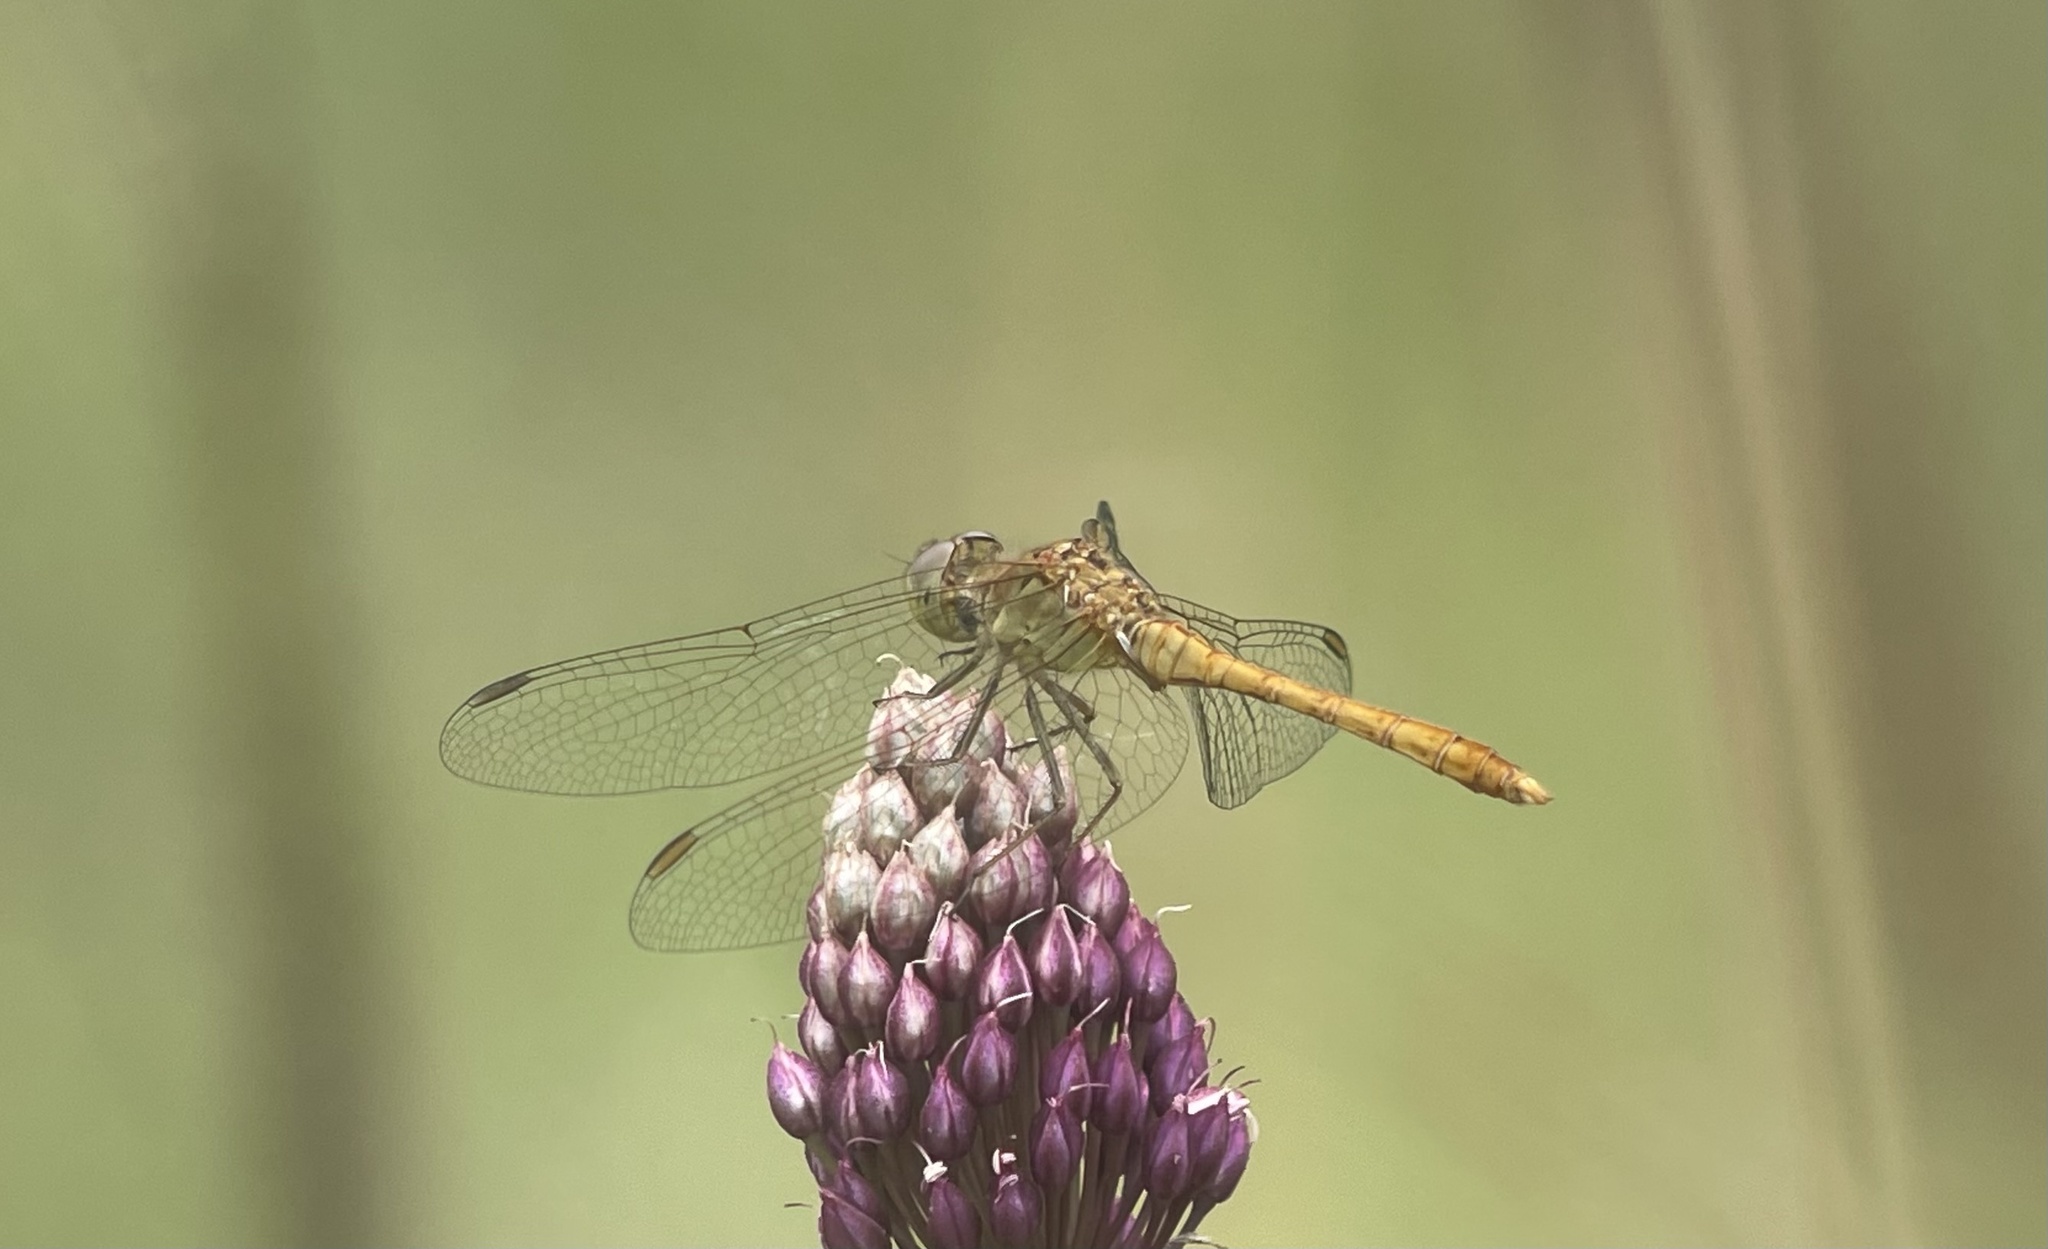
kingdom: Animalia
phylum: Arthropoda
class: Insecta
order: Odonata
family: Libellulidae
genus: Sympetrum
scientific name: Sympetrum meridionale
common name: Southern darter
